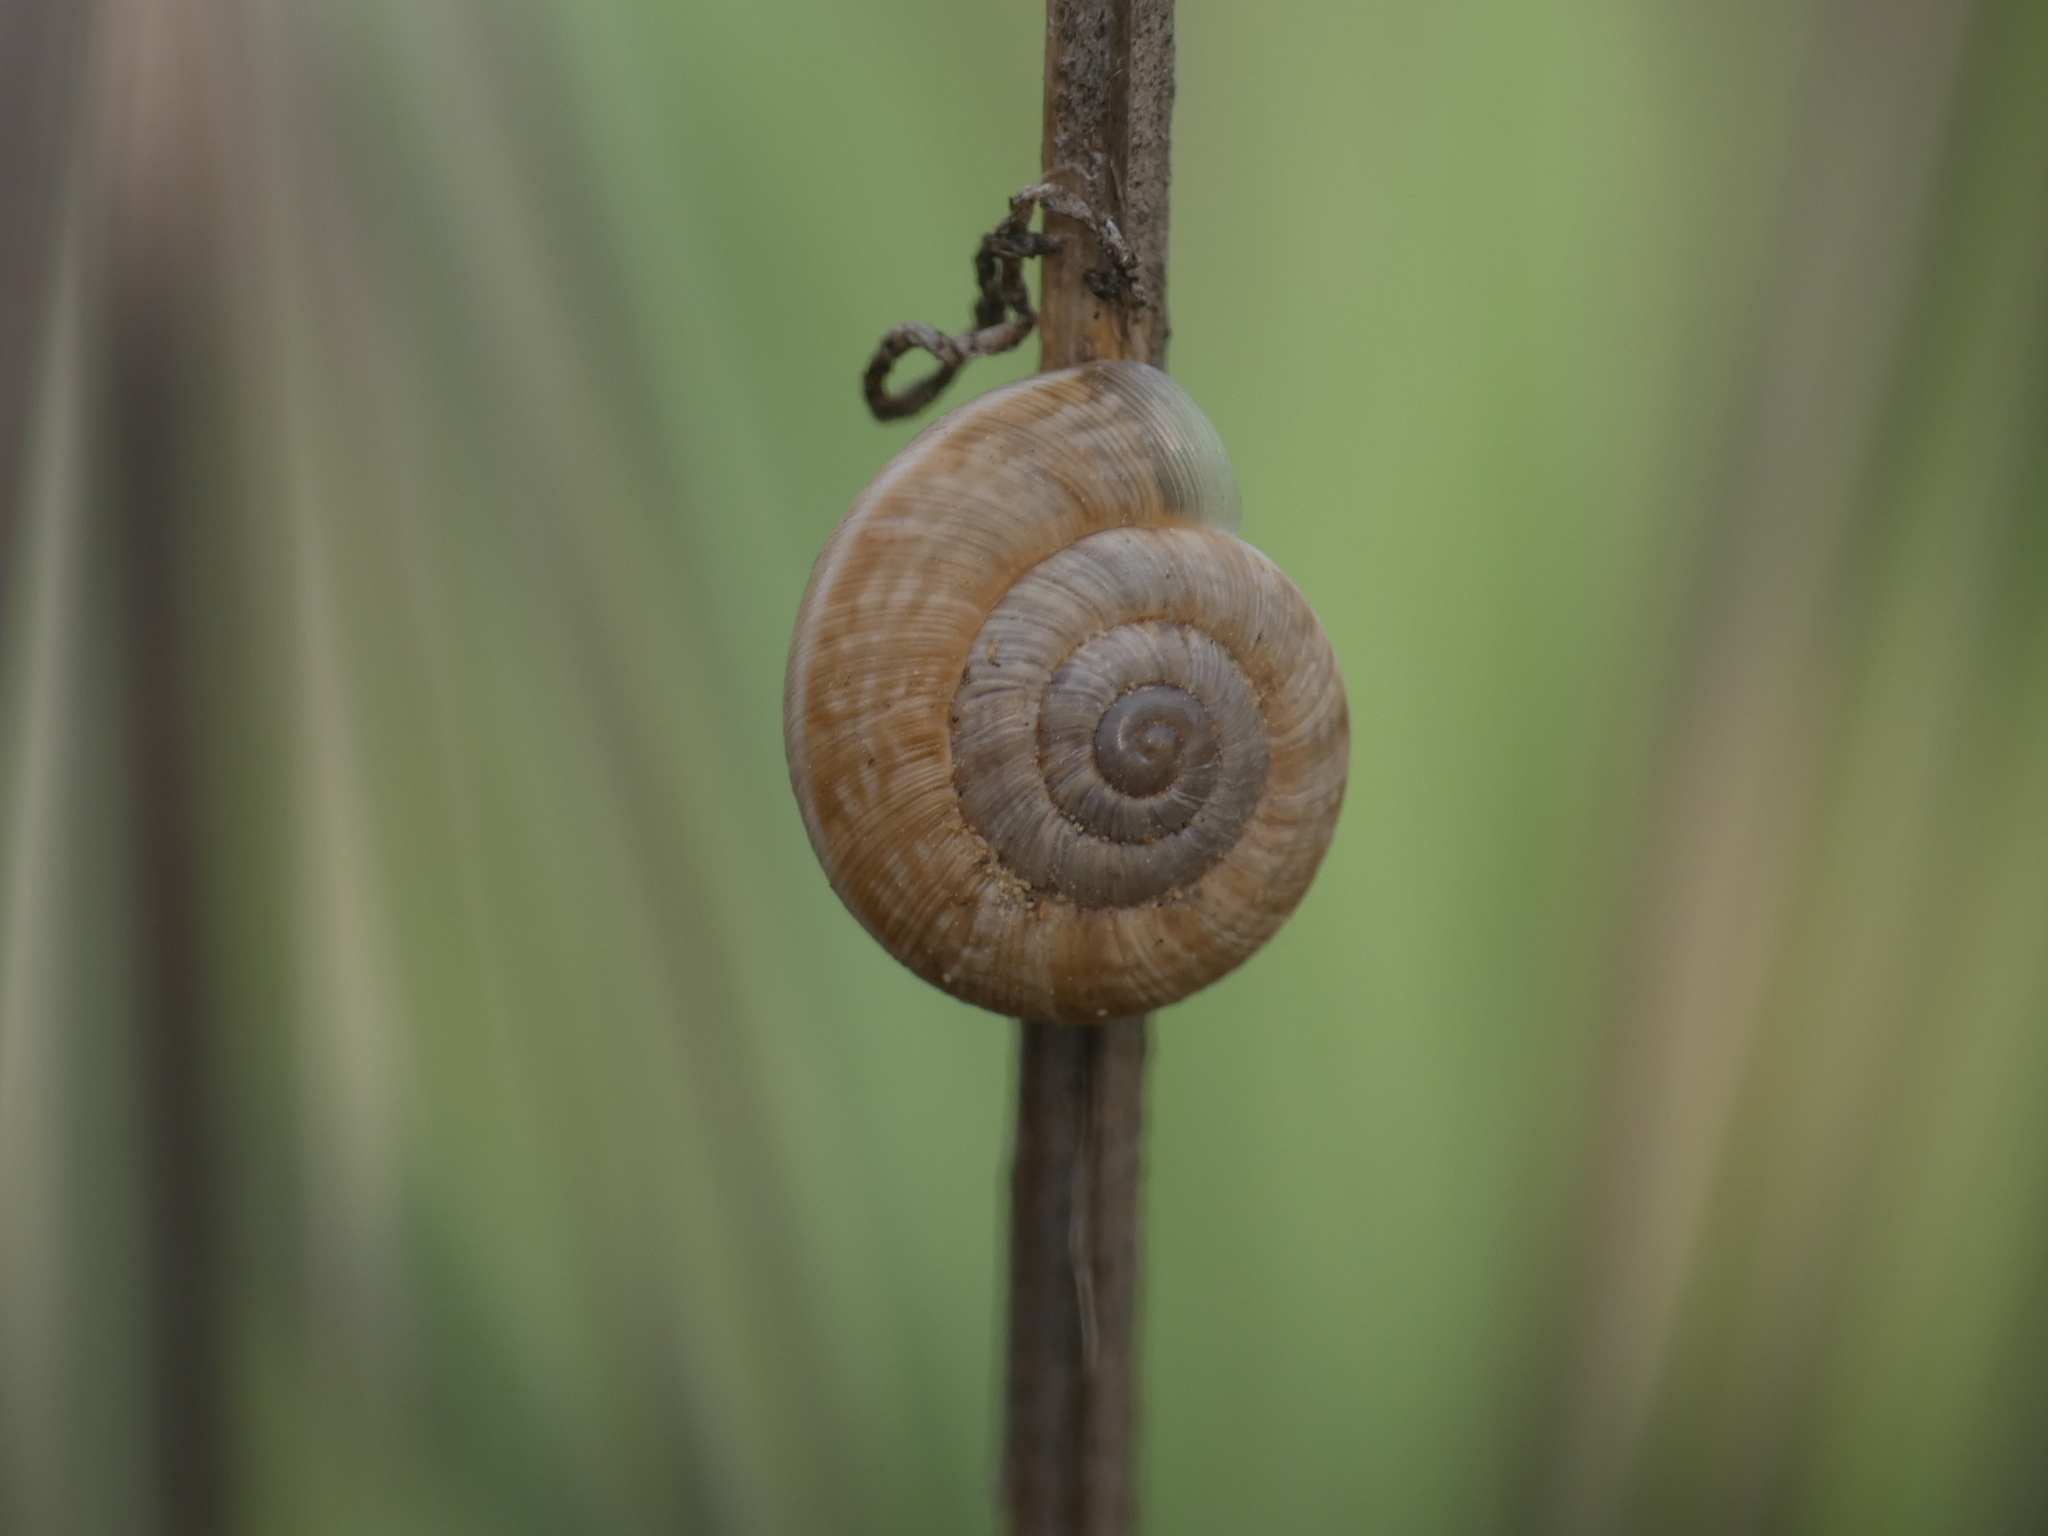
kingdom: Animalia
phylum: Mollusca
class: Gastropoda
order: Stylommatophora
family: Geomitridae
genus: Backeljaia
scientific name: Backeljaia gigaxii
